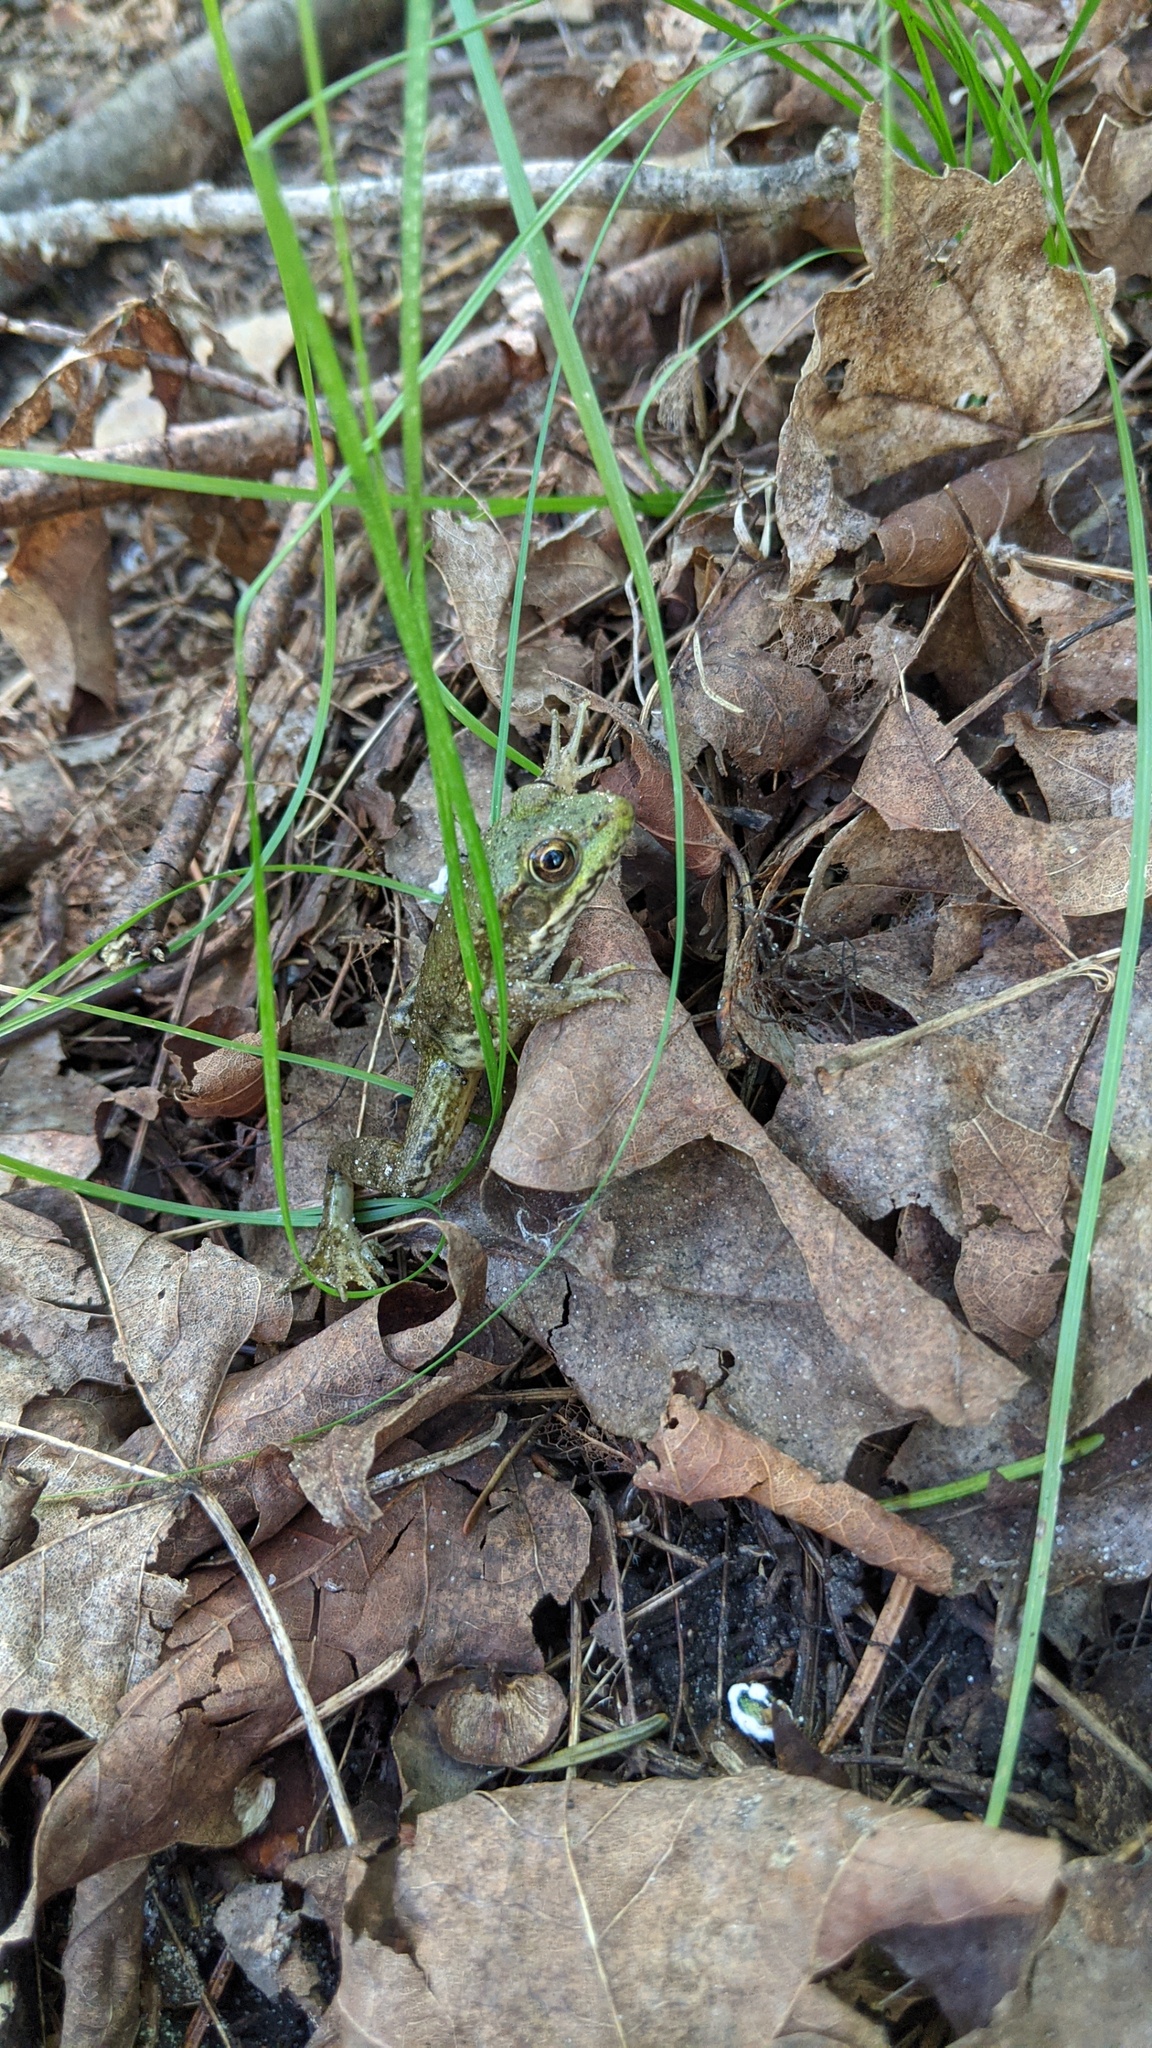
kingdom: Animalia
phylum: Chordata
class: Amphibia
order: Anura
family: Ranidae
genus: Lithobates
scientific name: Lithobates clamitans
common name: Green frog
